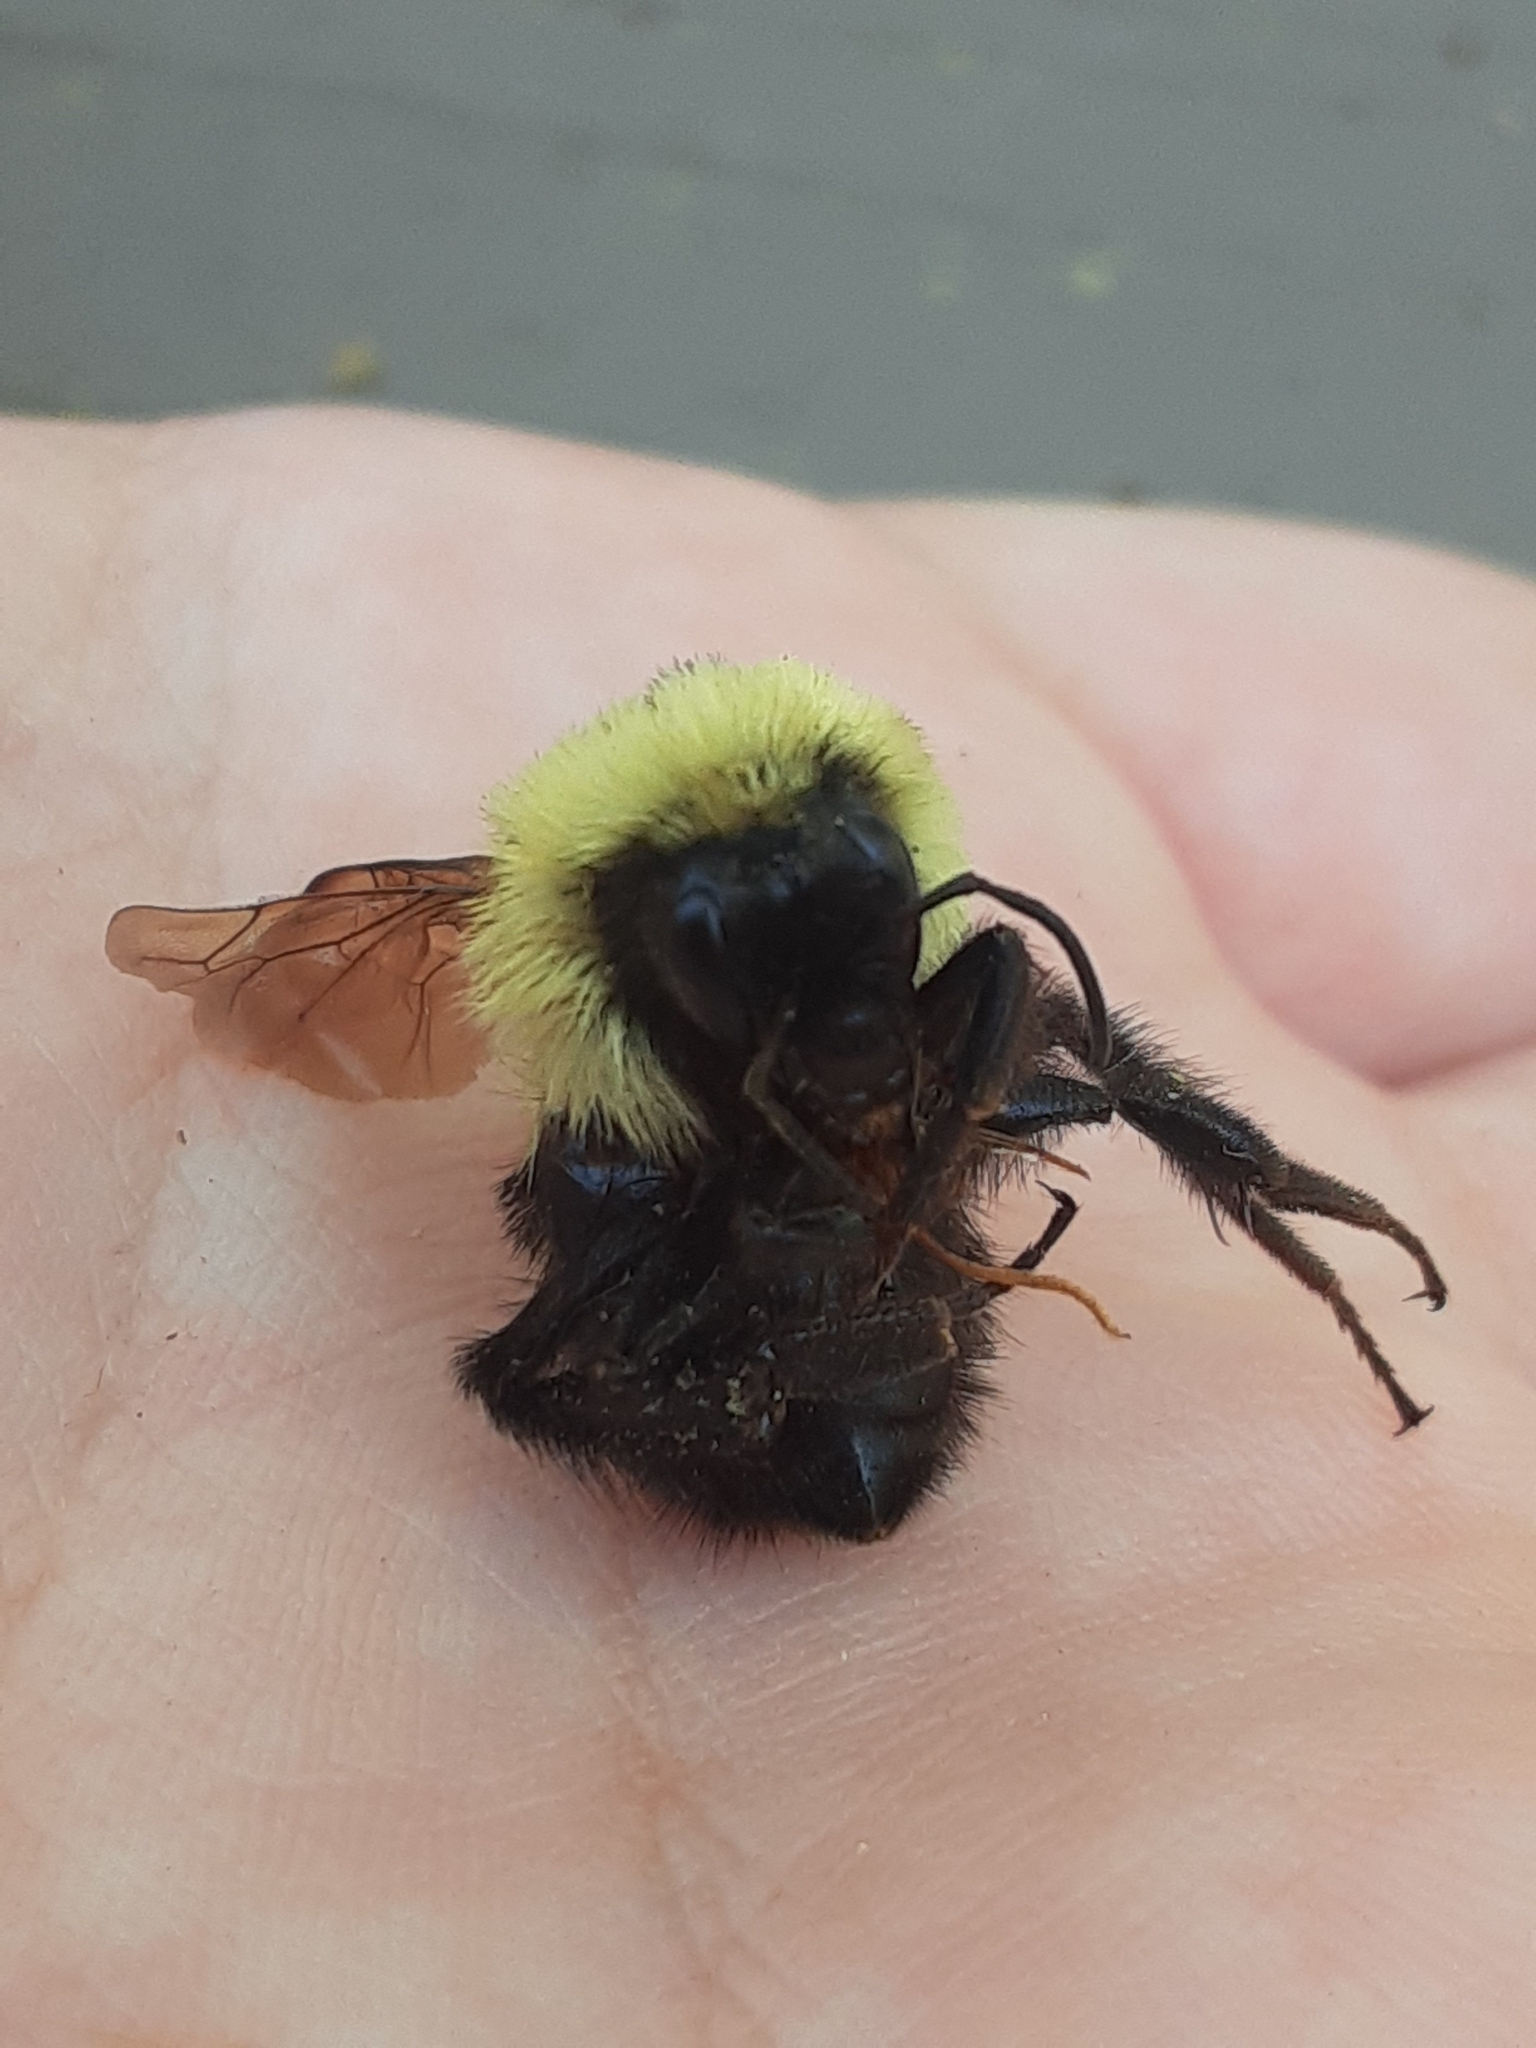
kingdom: Animalia
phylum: Arthropoda
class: Insecta
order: Hymenoptera
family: Apidae
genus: Bombus
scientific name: Bombus bimaculatus
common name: Two-spotted bumble bee
